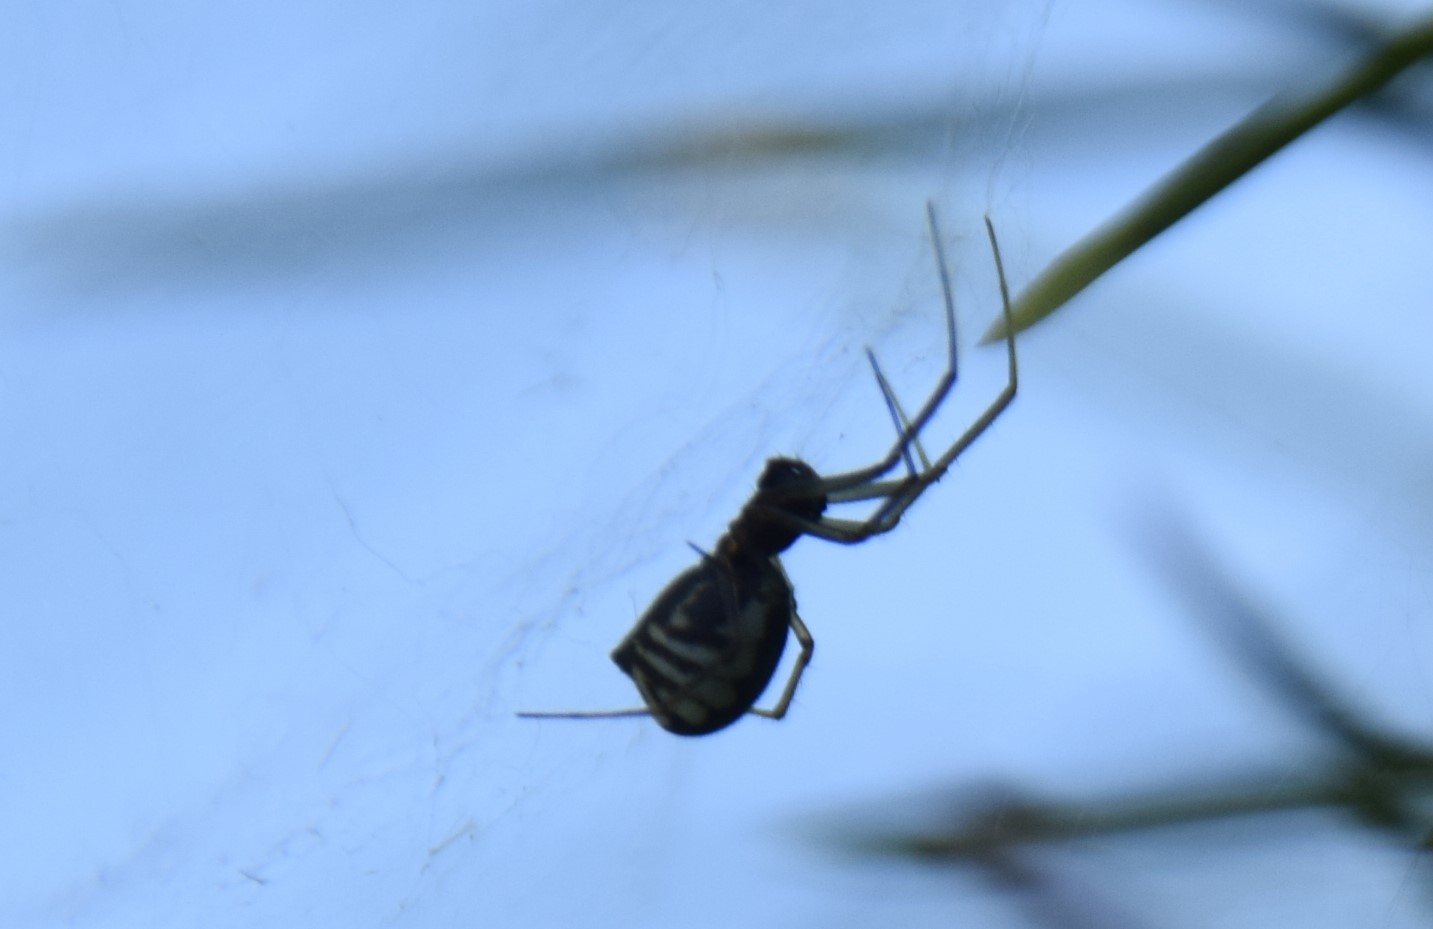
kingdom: Animalia
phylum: Arthropoda
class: Arachnida
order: Araneae
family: Linyphiidae
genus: Frontinella
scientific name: Frontinella pyramitela
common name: Bowl-and-doily spider
